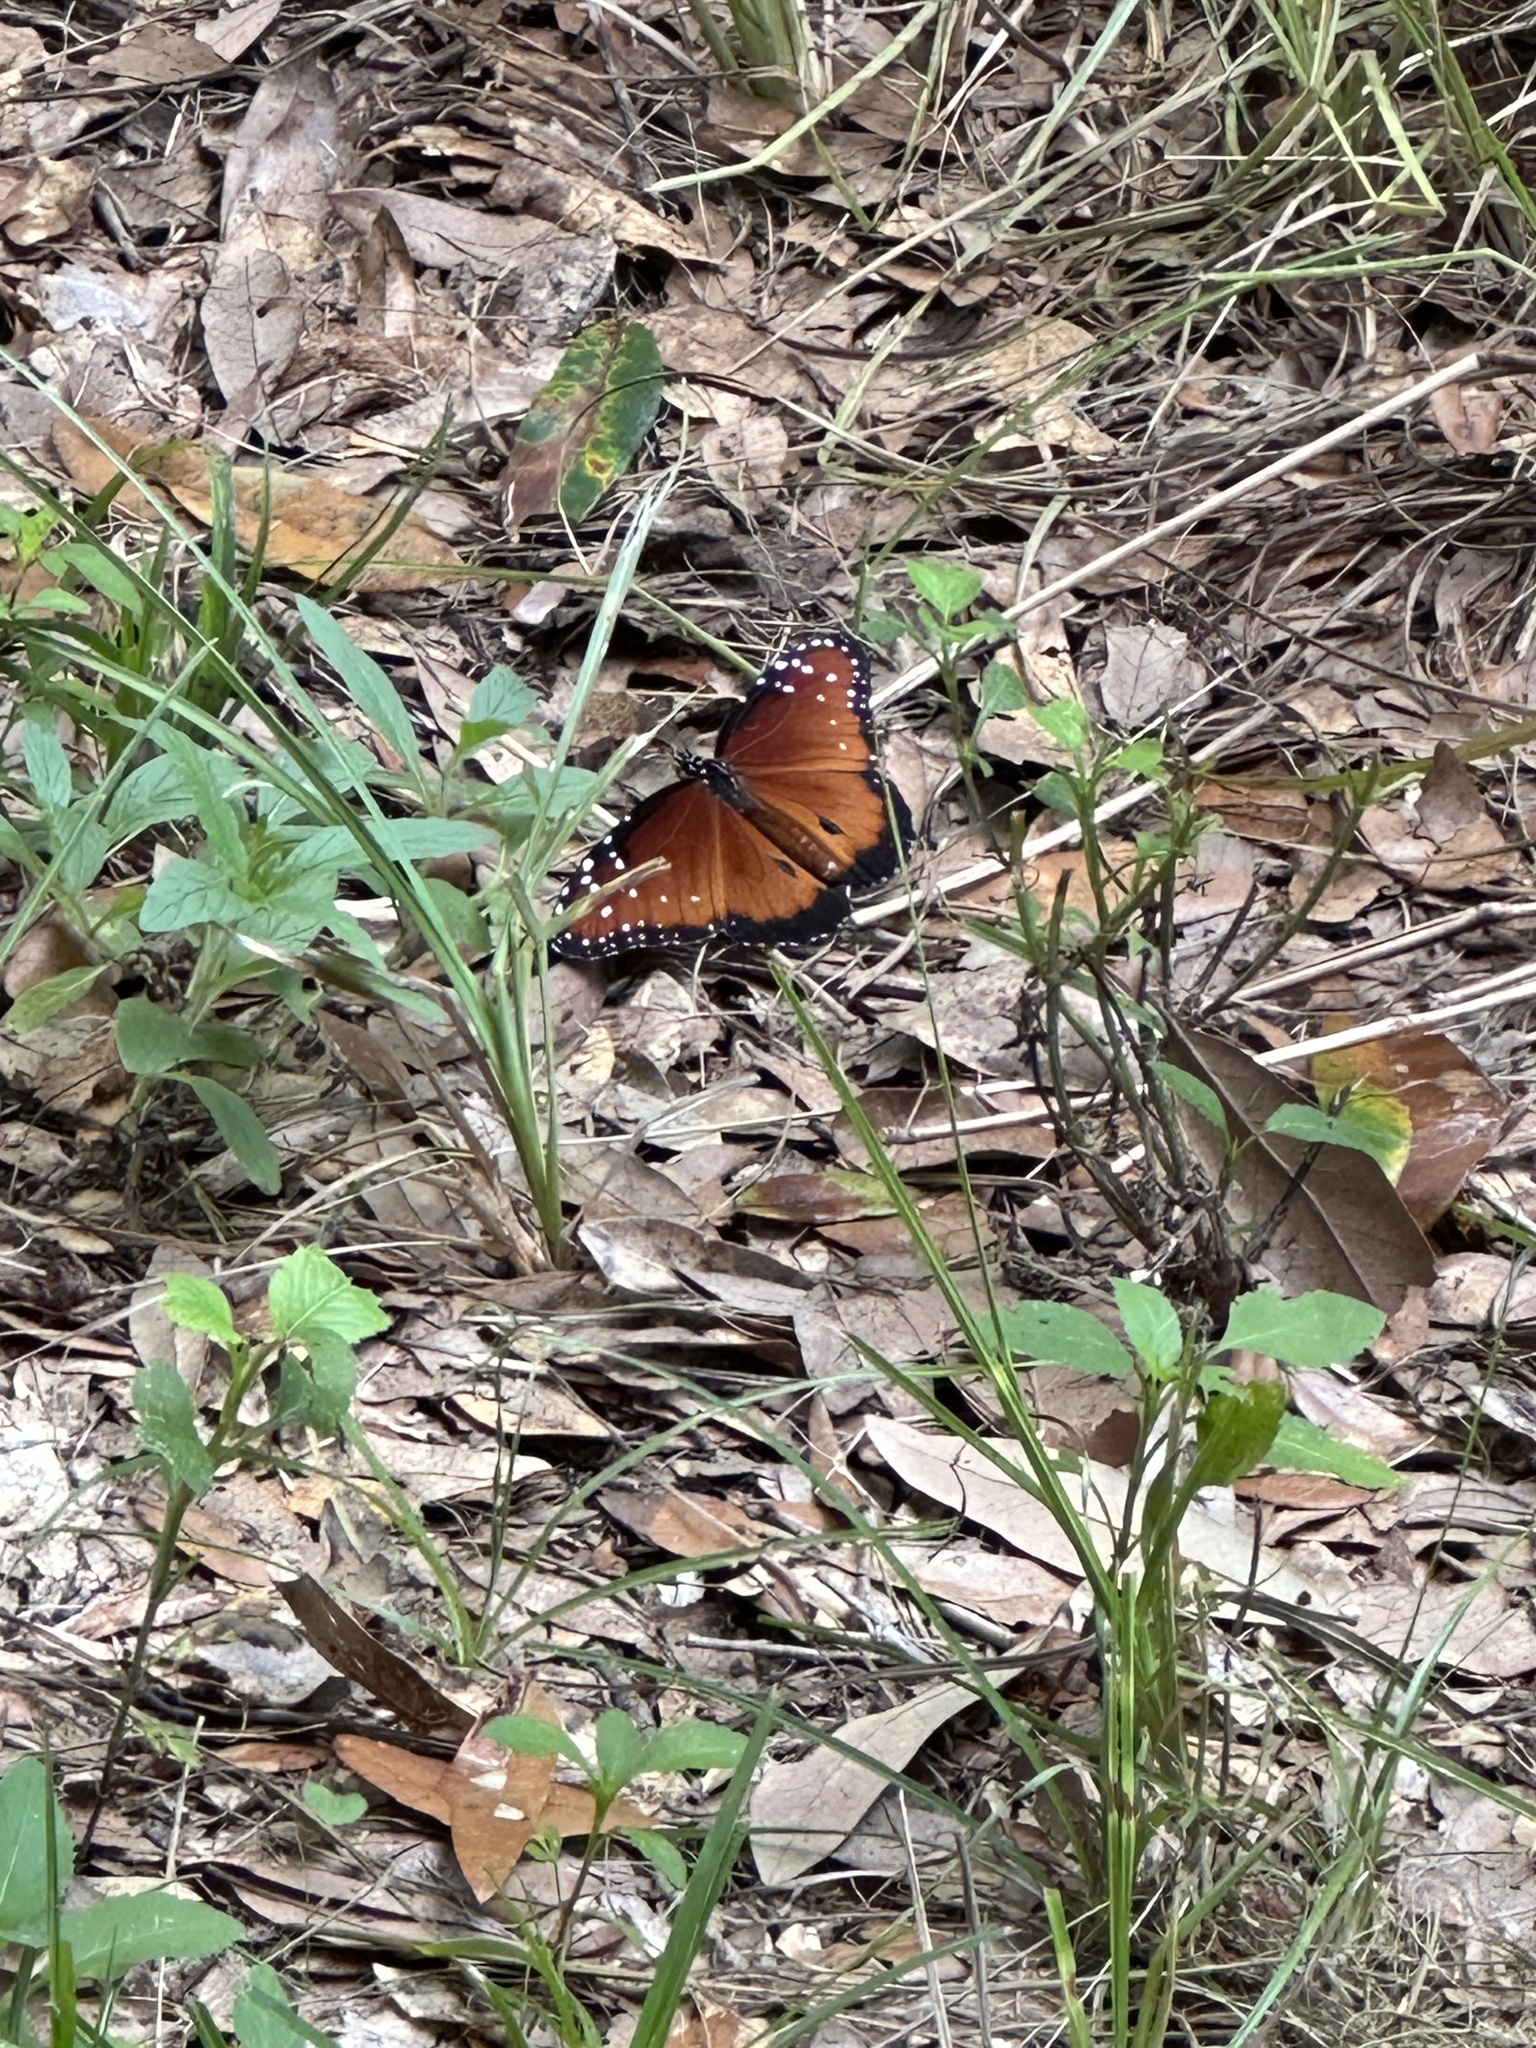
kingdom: Animalia
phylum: Arthropoda
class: Insecta
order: Lepidoptera
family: Nymphalidae
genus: Danaus
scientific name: Danaus gilippus
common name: Queen
